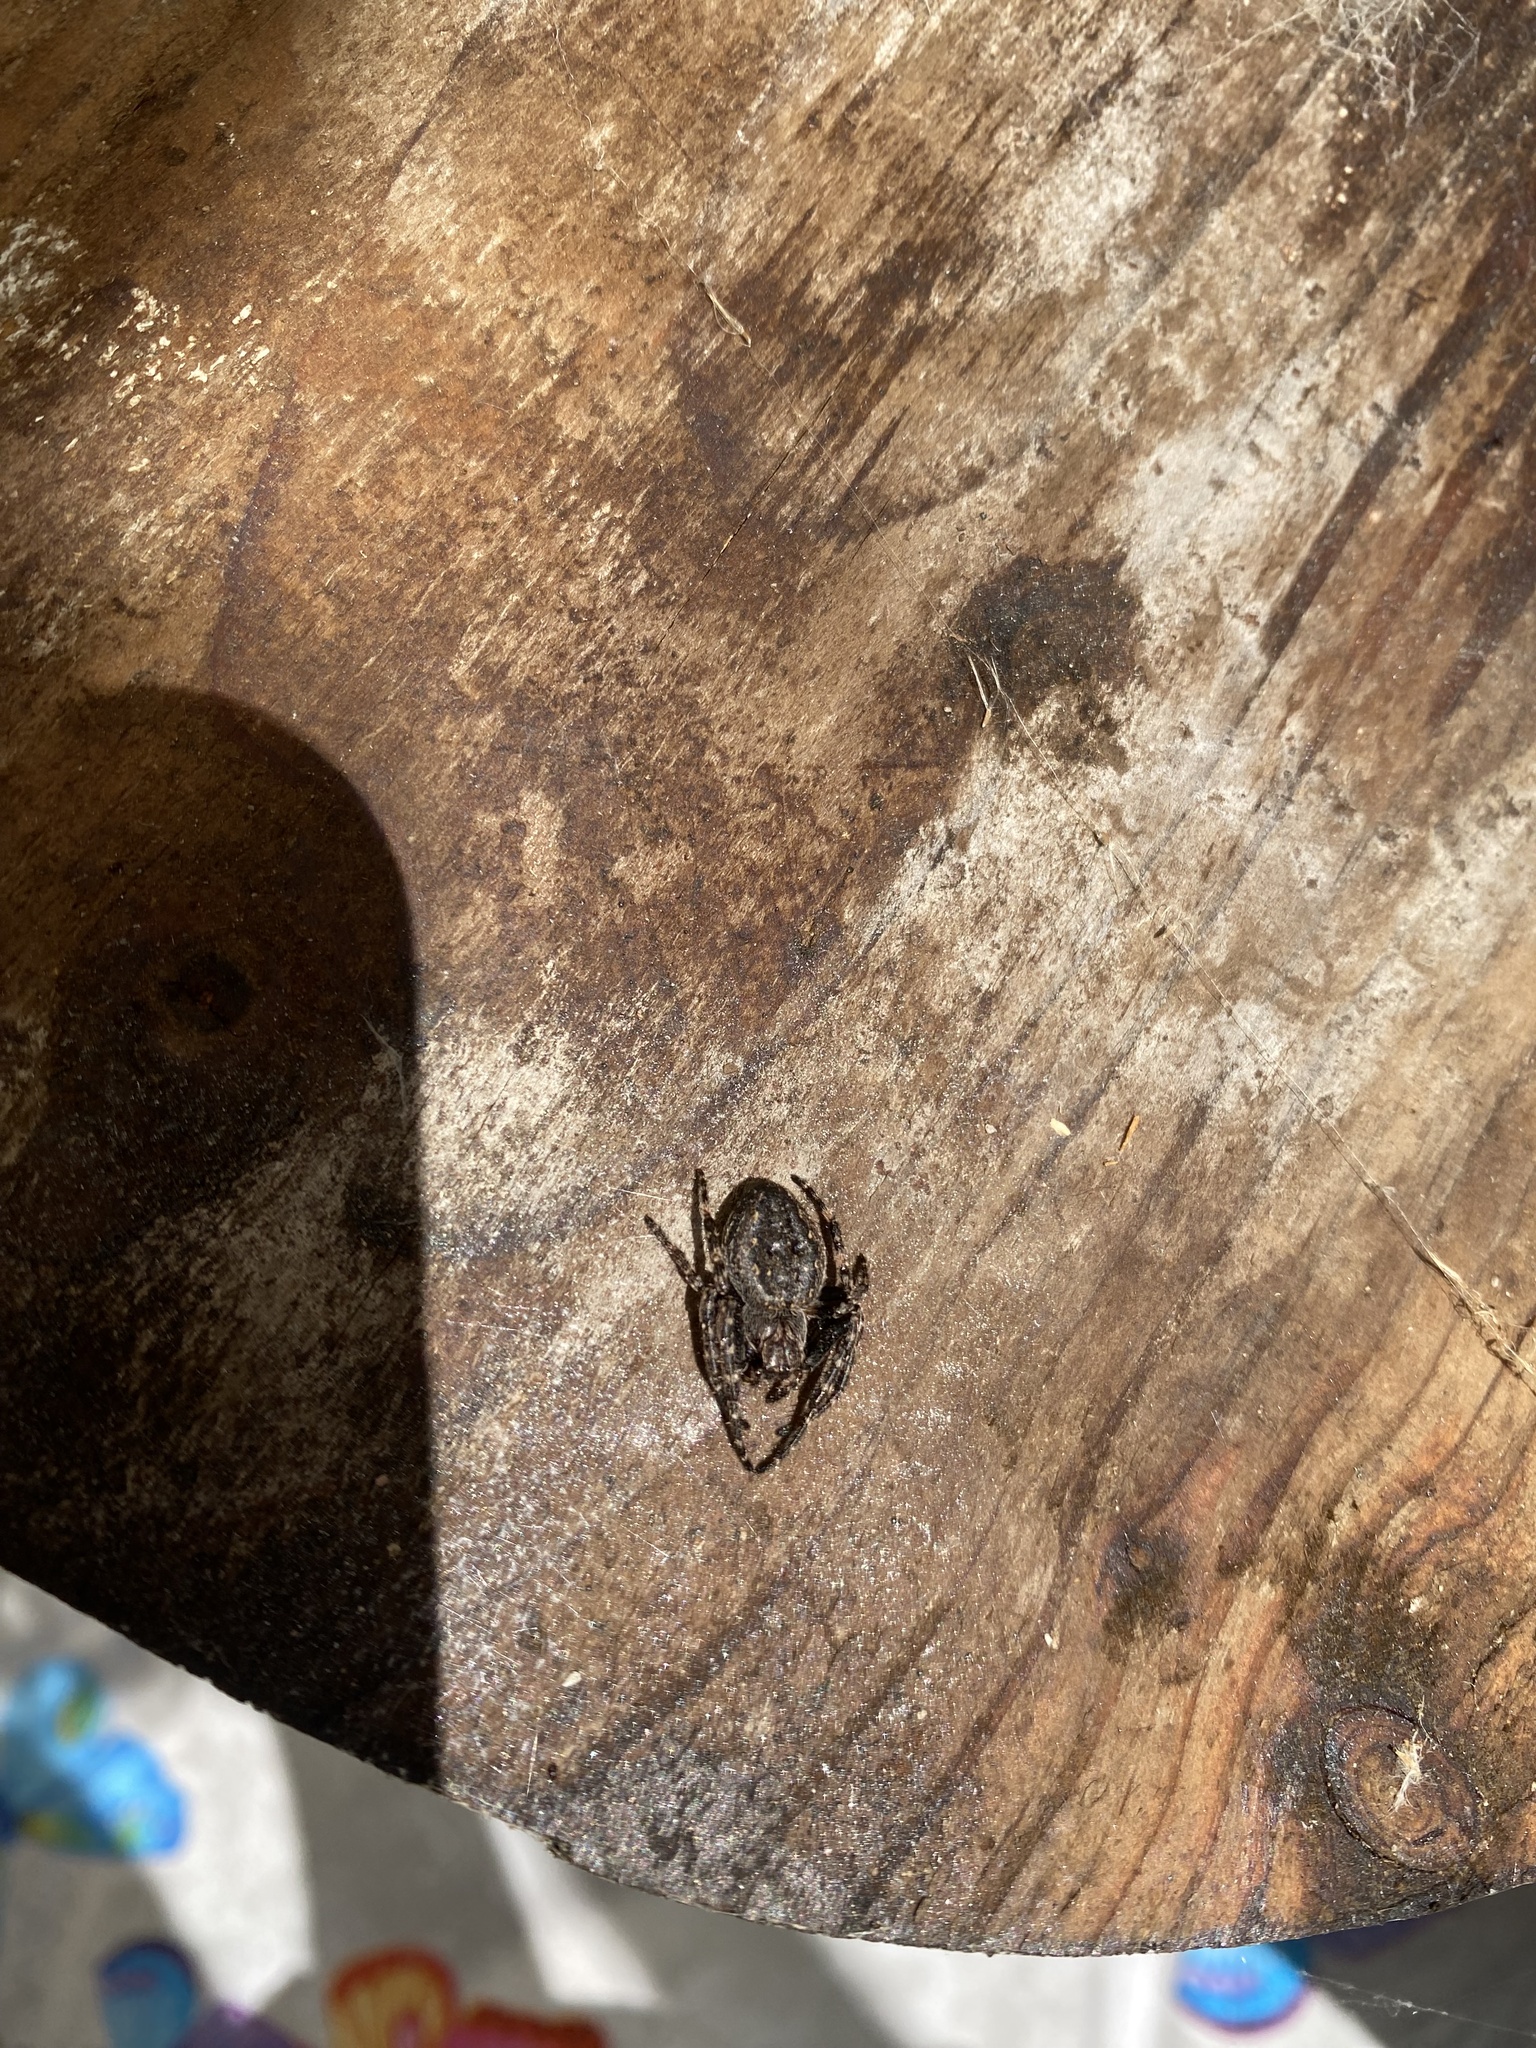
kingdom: Animalia
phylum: Arthropoda
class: Arachnida
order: Araneae
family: Araneidae
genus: Nuctenea
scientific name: Nuctenea umbratica
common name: Toad spider
